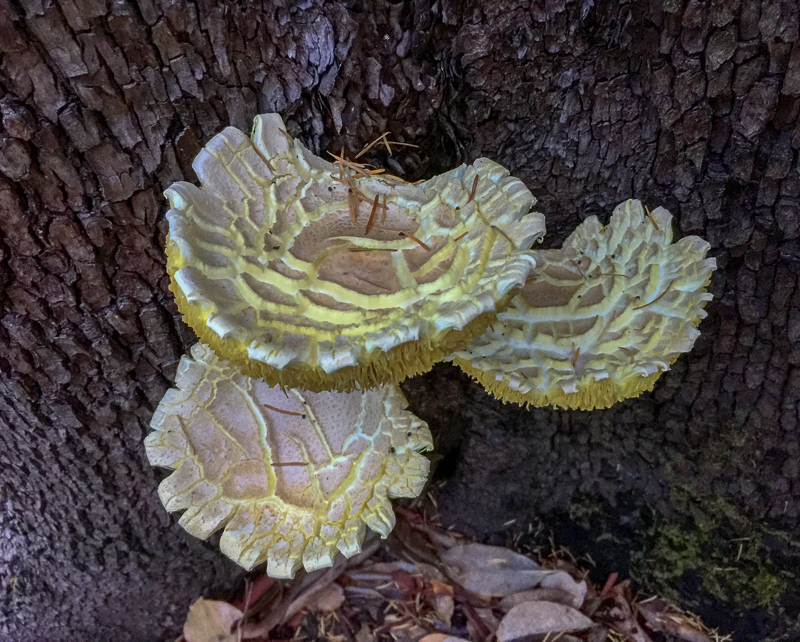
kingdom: Fungi
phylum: Basidiomycota
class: Agaricomycetes
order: Agaricales
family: Pleurotaceae
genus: Pleurotus
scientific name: Pleurotus dryinus
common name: Veiled oyster
